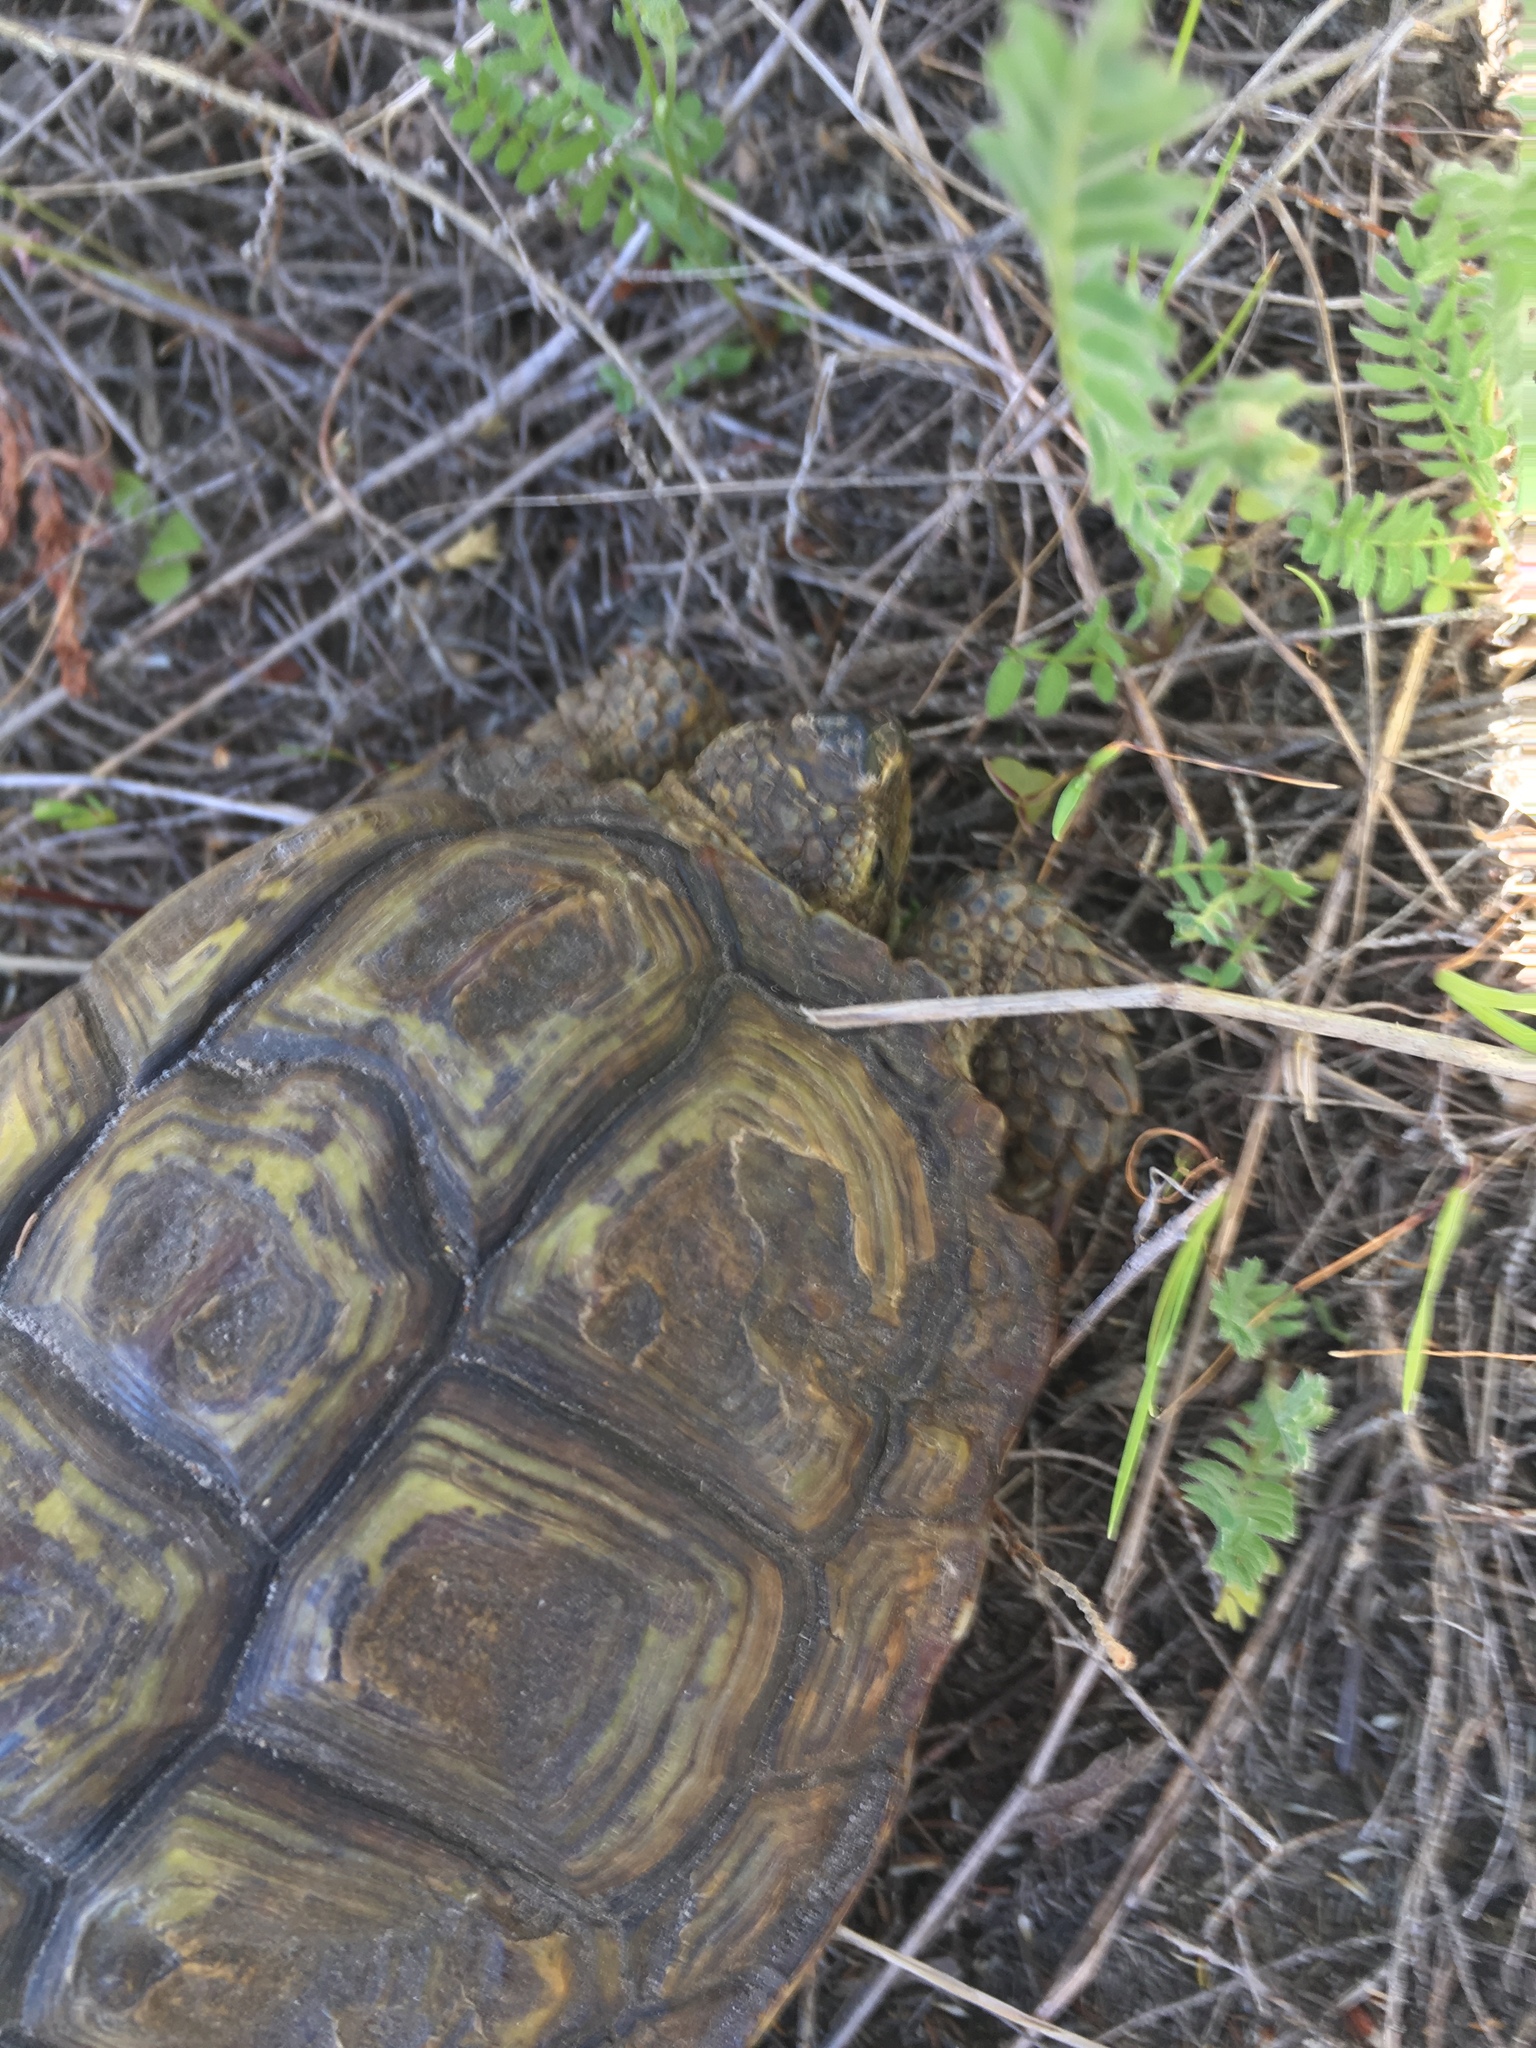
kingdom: Animalia
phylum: Chordata
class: Testudines
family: Testudinidae
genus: Homopus
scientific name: Homopus areolatus
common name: Parrot-beaked tortoise
